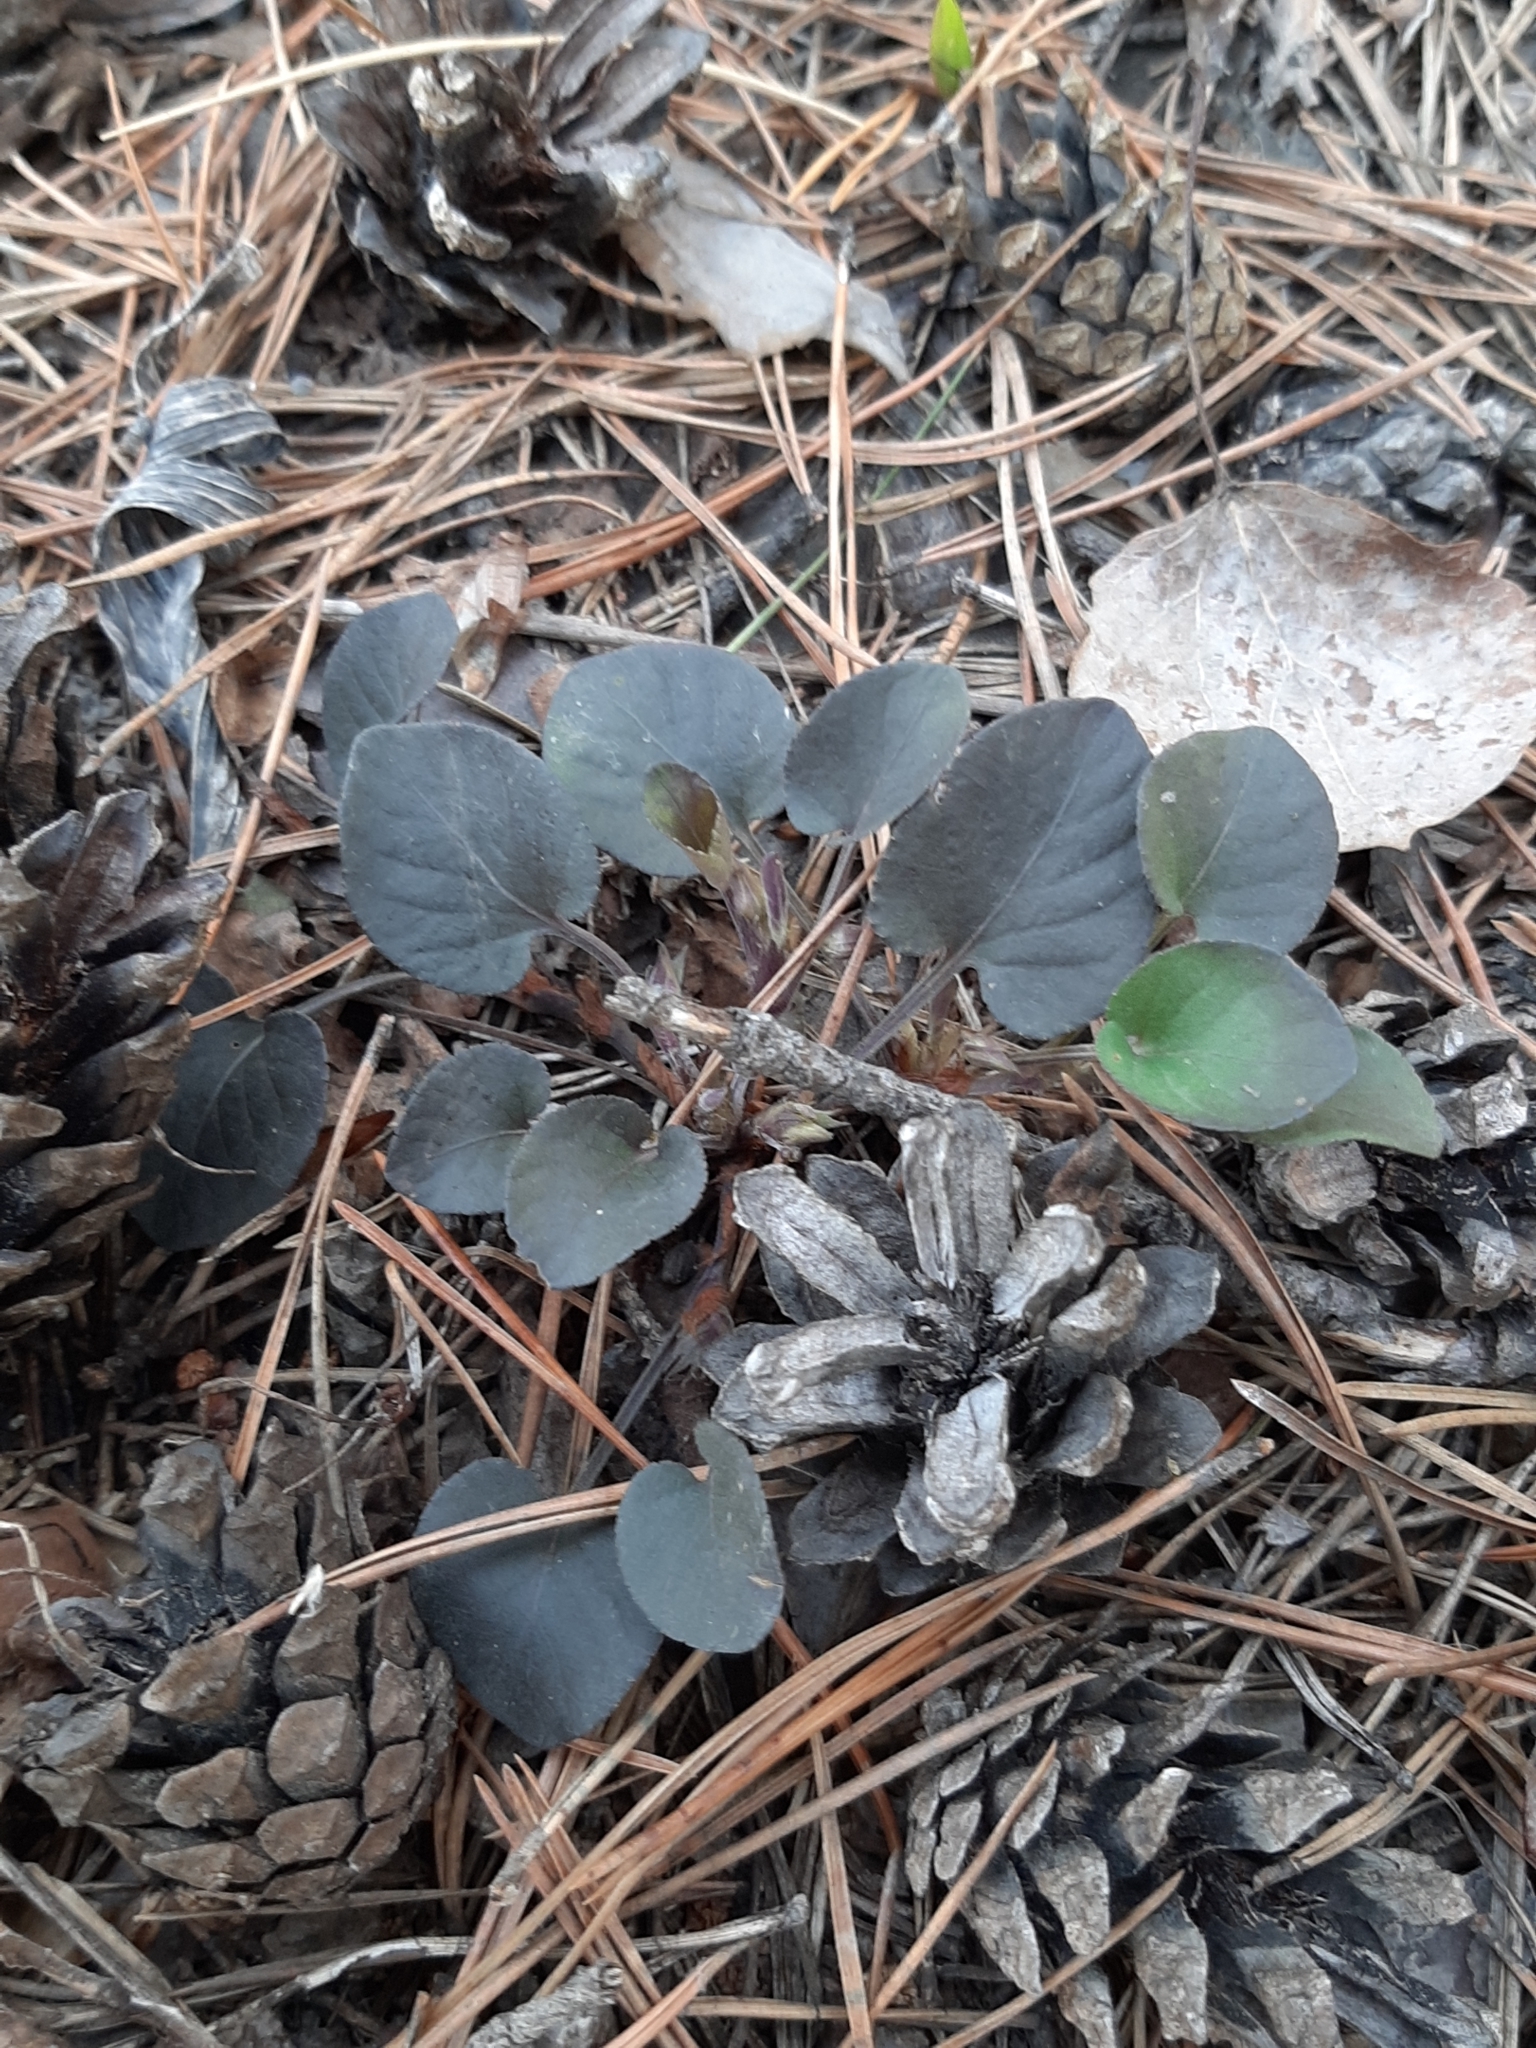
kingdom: Plantae
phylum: Tracheophyta
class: Magnoliopsida
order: Malpighiales
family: Violaceae
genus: Viola
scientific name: Viola rupestris
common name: Teesdale violet
